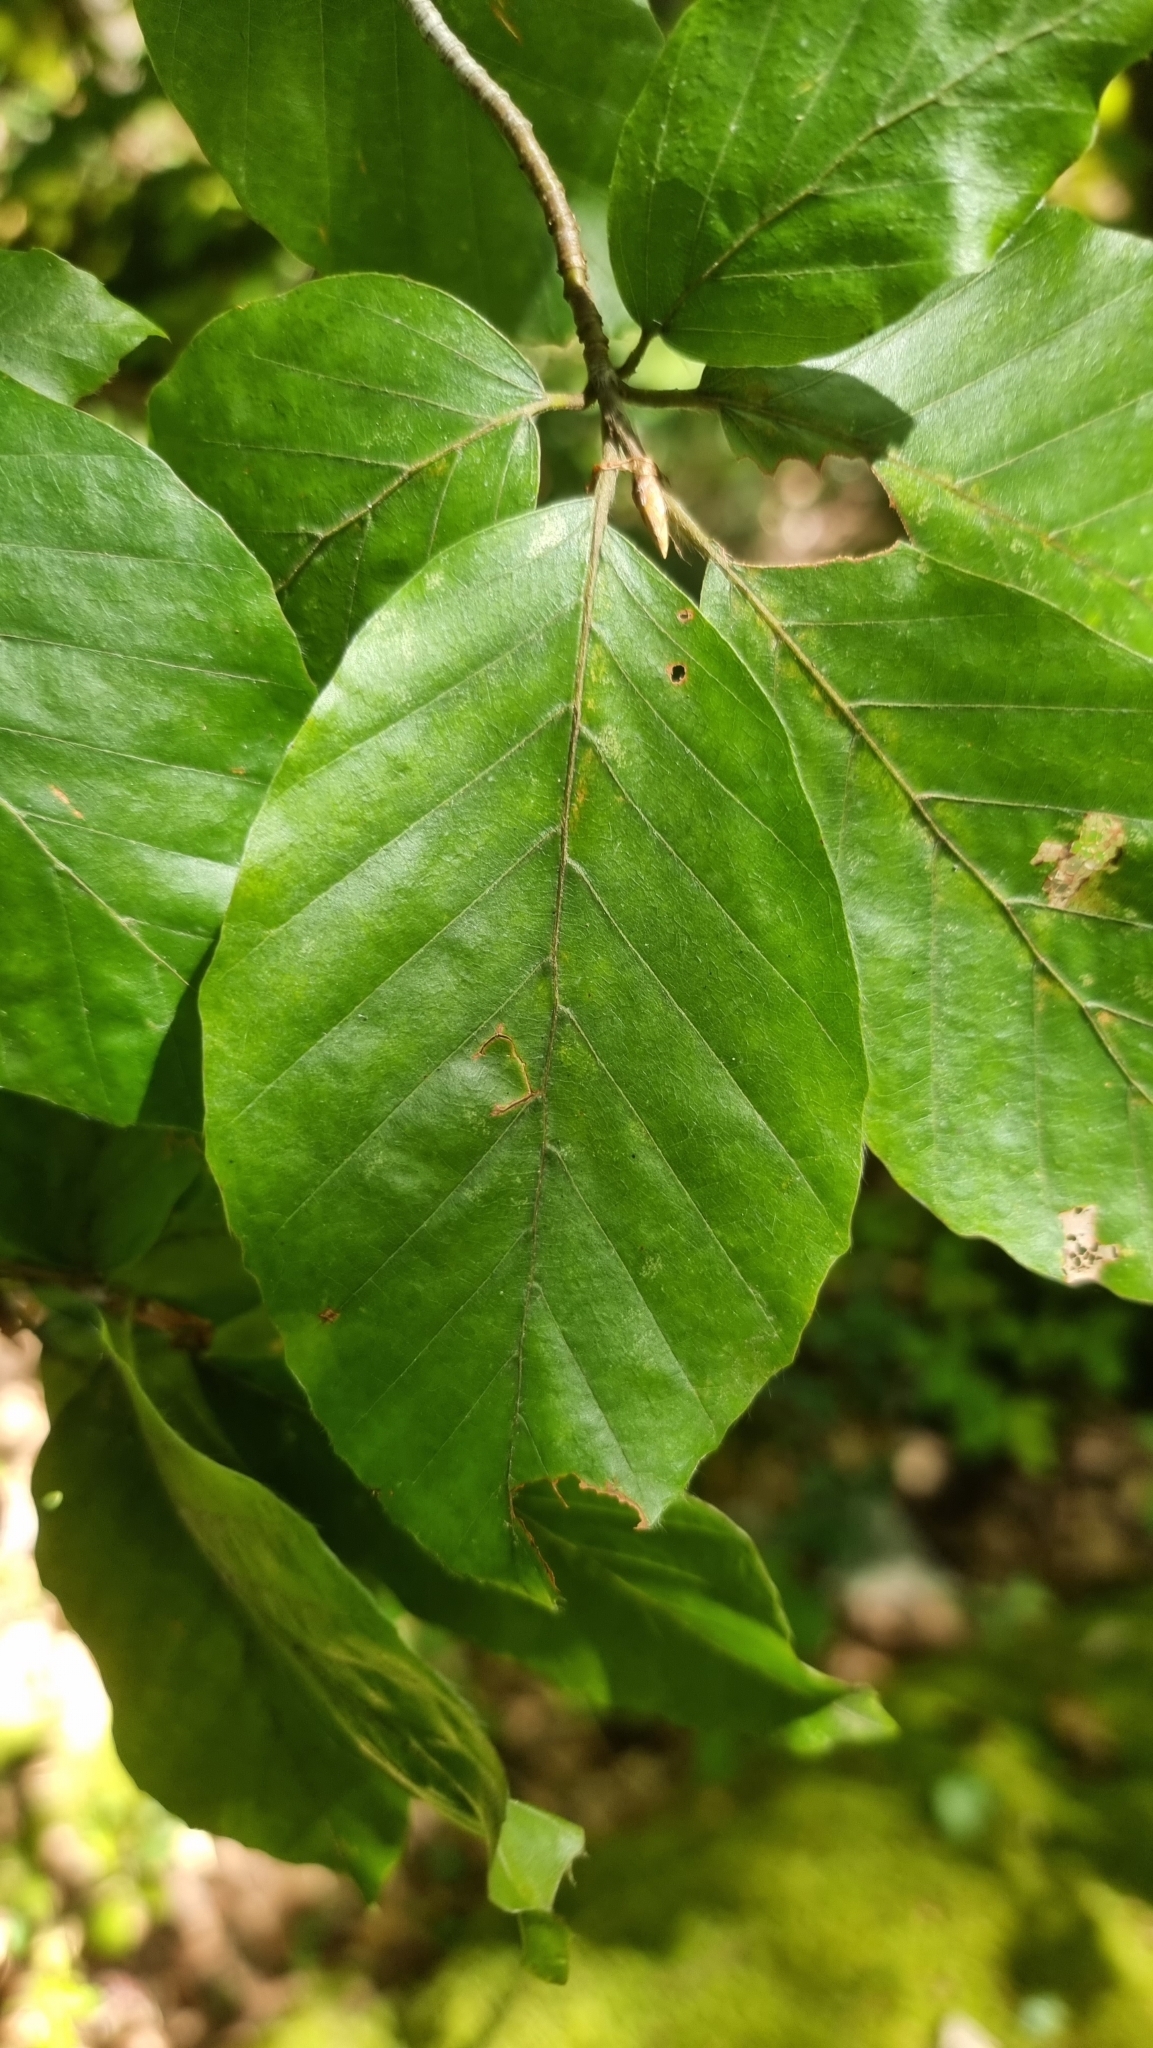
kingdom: Plantae
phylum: Tracheophyta
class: Magnoliopsida
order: Fagales
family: Fagaceae
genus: Fagus
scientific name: Fagus sylvatica
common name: Beech
